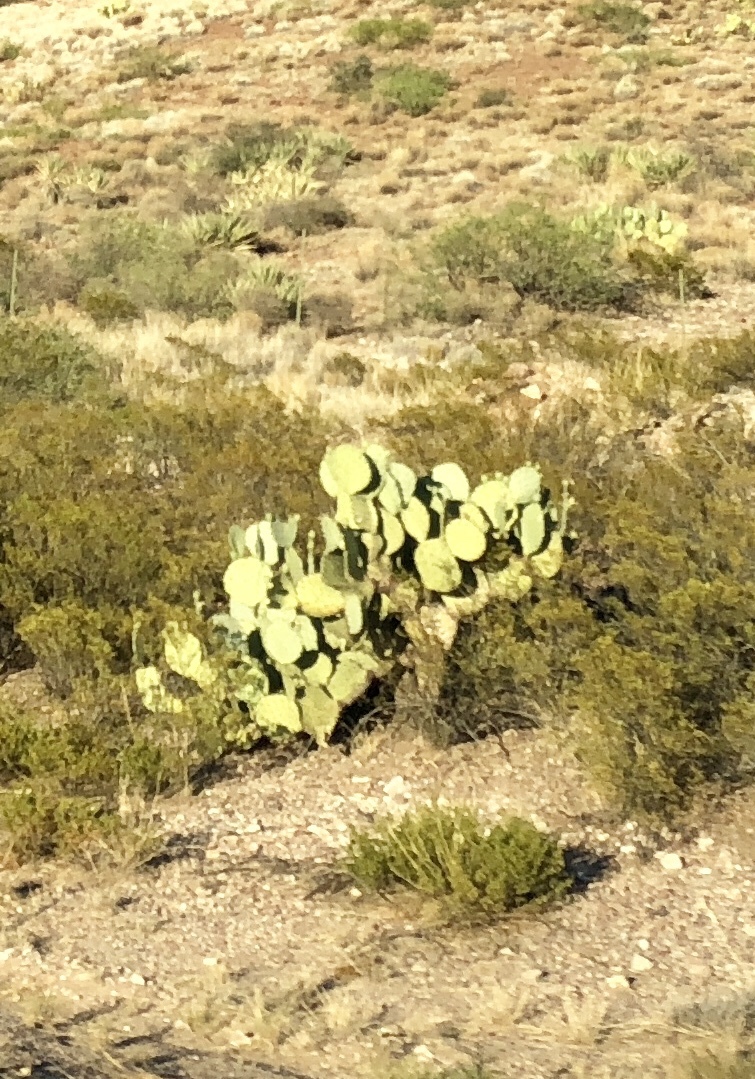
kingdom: Plantae
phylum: Tracheophyta
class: Magnoliopsida
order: Caryophyllales
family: Cactaceae
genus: Opuntia
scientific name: Opuntia chlorotica
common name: Dollar-joint prickly-pear
